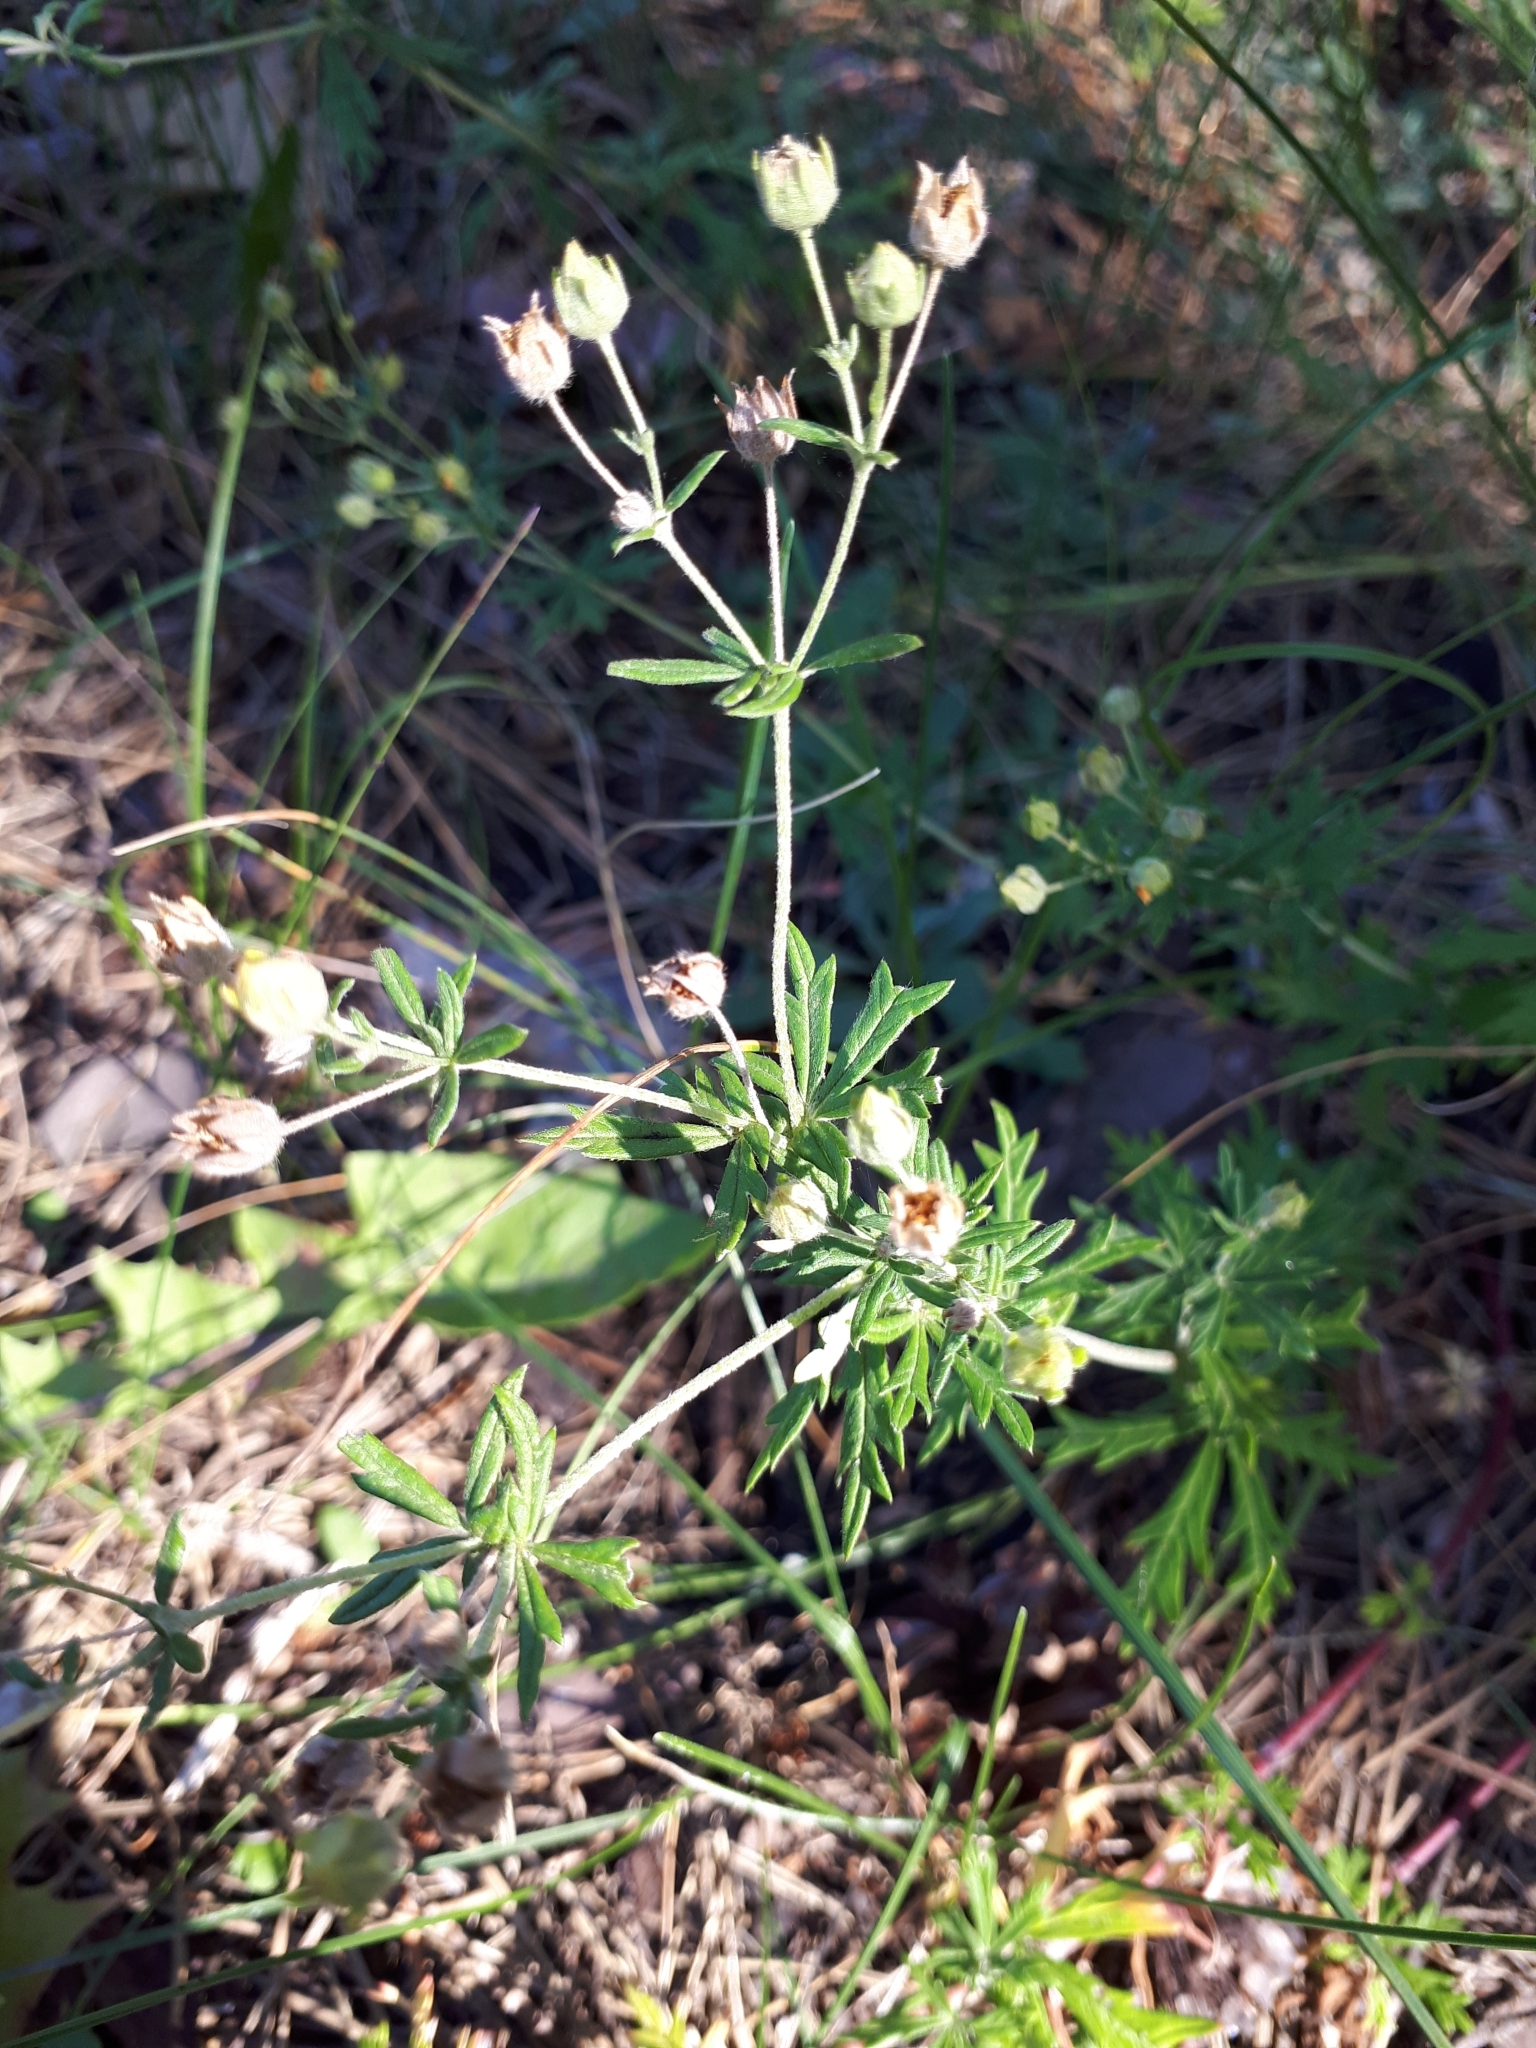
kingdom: Plantae
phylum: Tracheophyta
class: Magnoliopsida
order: Rosales
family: Rosaceae
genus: Potentilla
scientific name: Potentilla argentea
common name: Hoary cinquefoil
